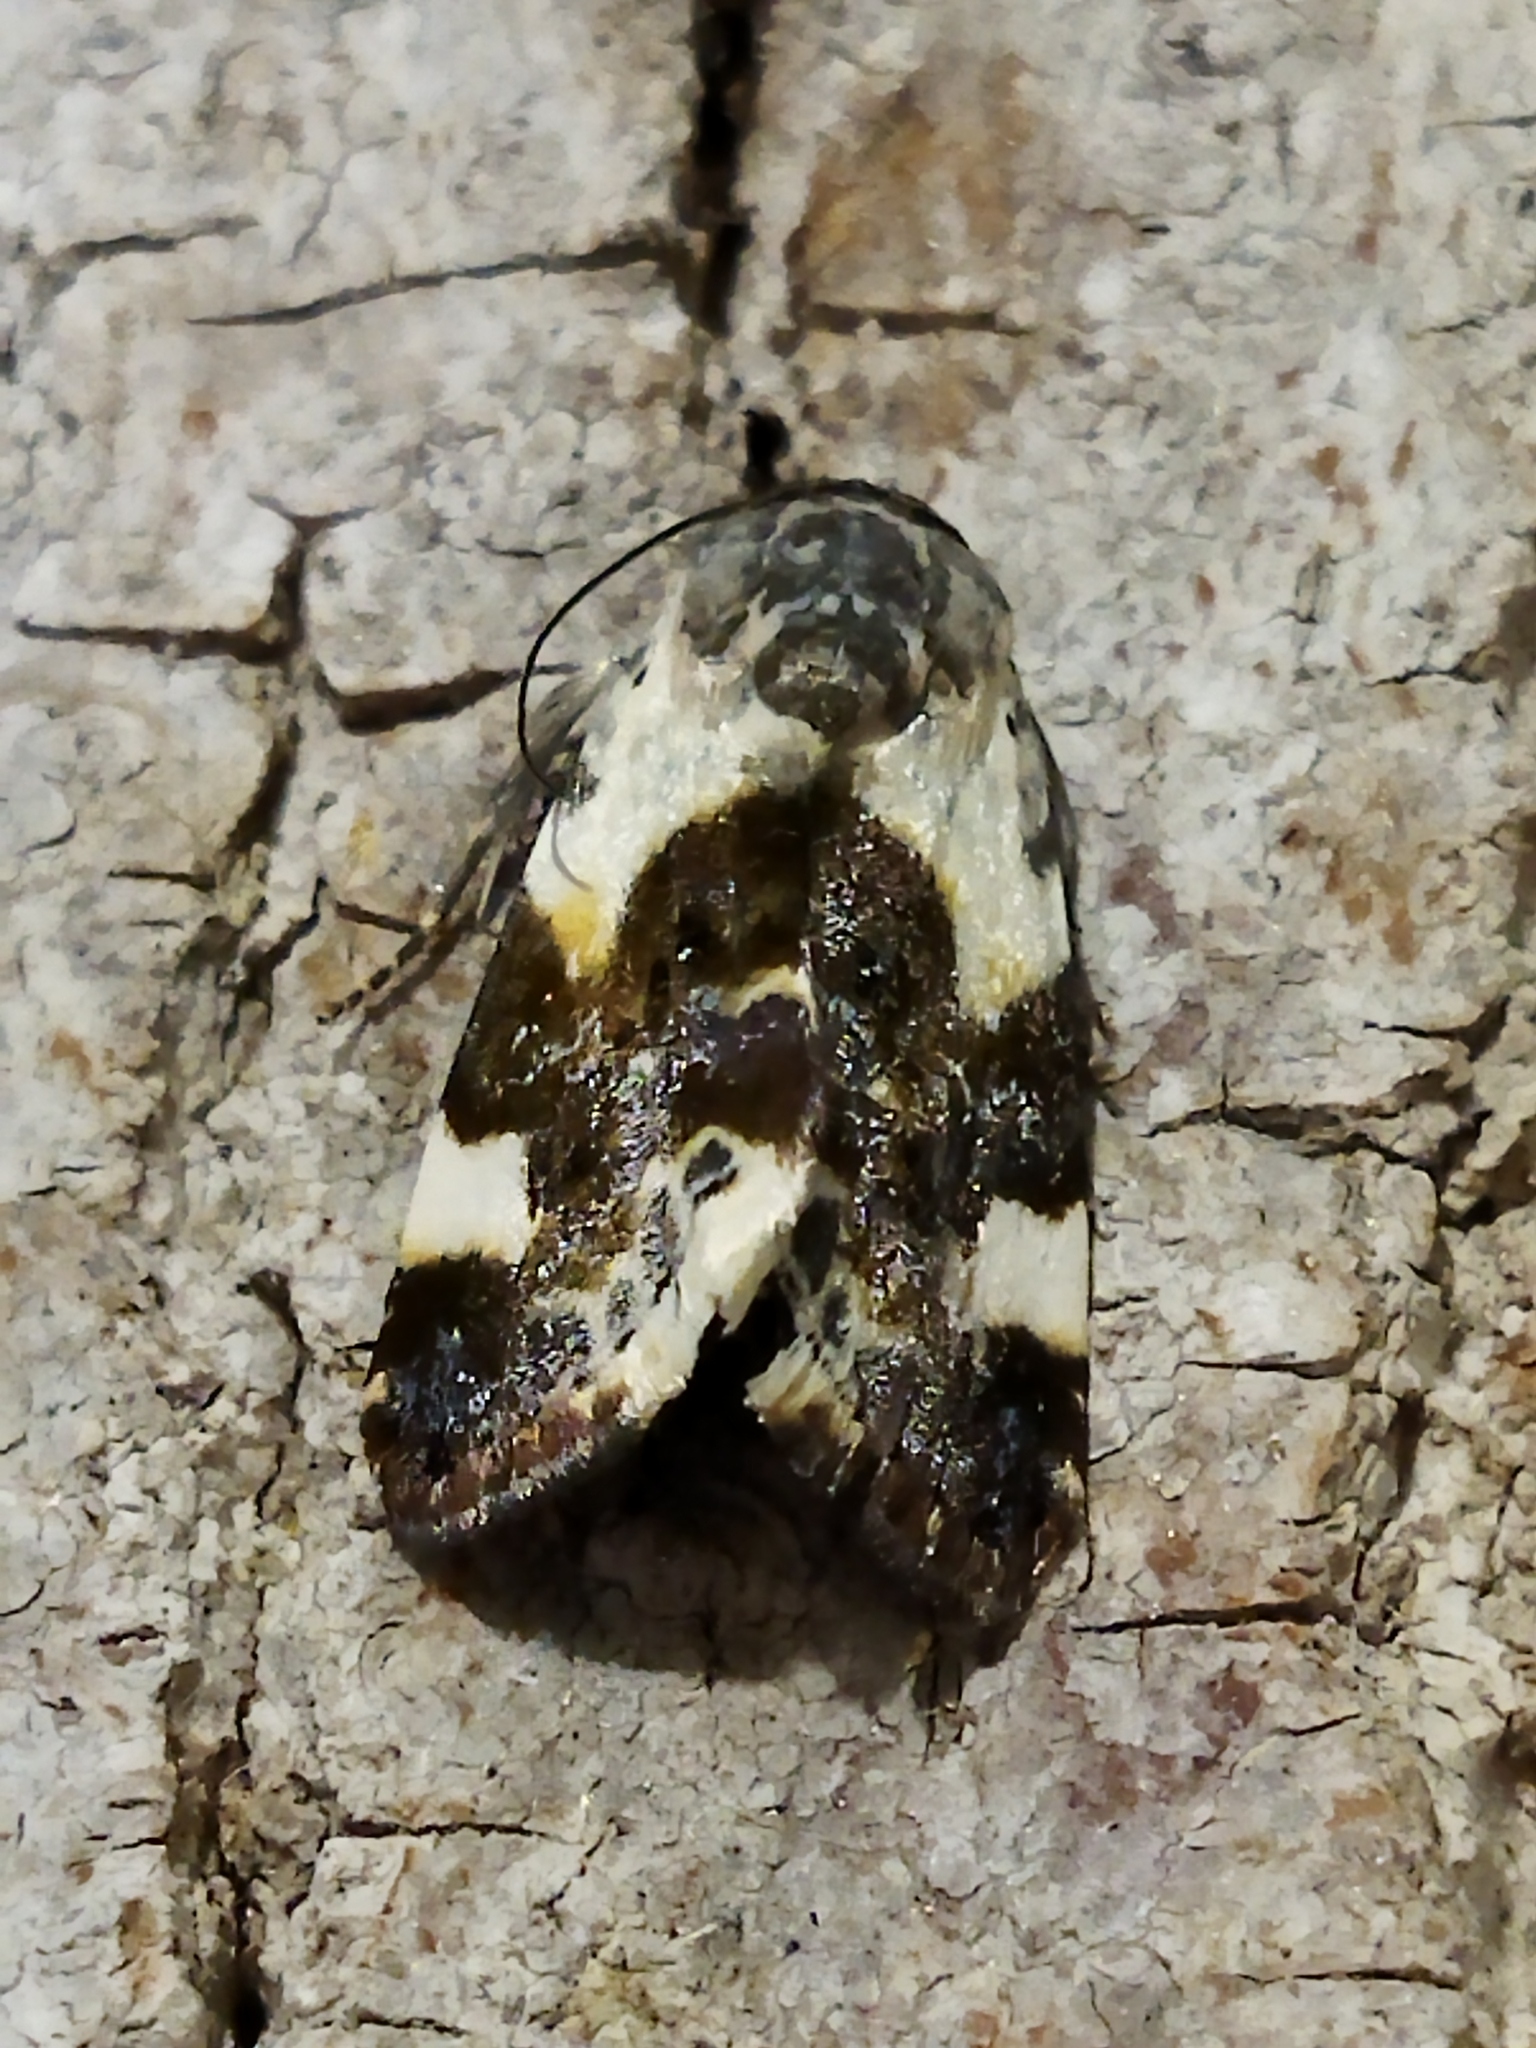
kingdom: Animalia
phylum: Arthropoda
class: Insecta
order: Lepidoptera
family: Noctuidae
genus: Acontia
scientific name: Acontia lucida
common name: Pale shoulder
